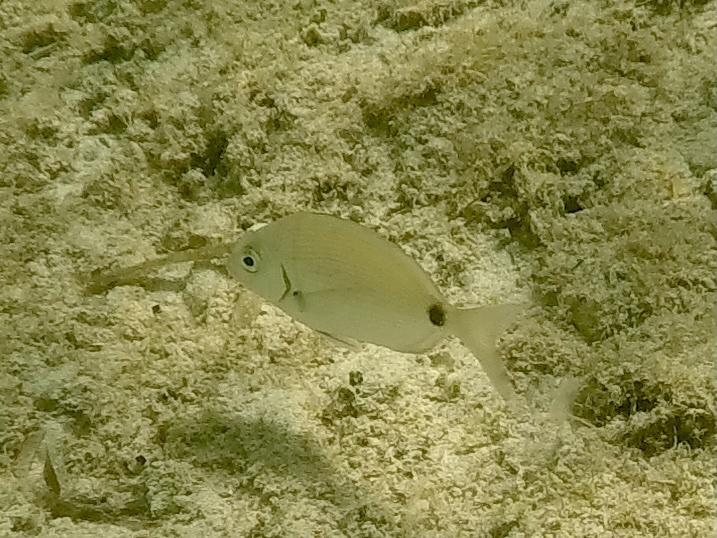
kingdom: Animalia
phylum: Chordata
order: Perciformes
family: Sparidae
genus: Diplodus
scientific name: Diplodus sargus
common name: White seabream
